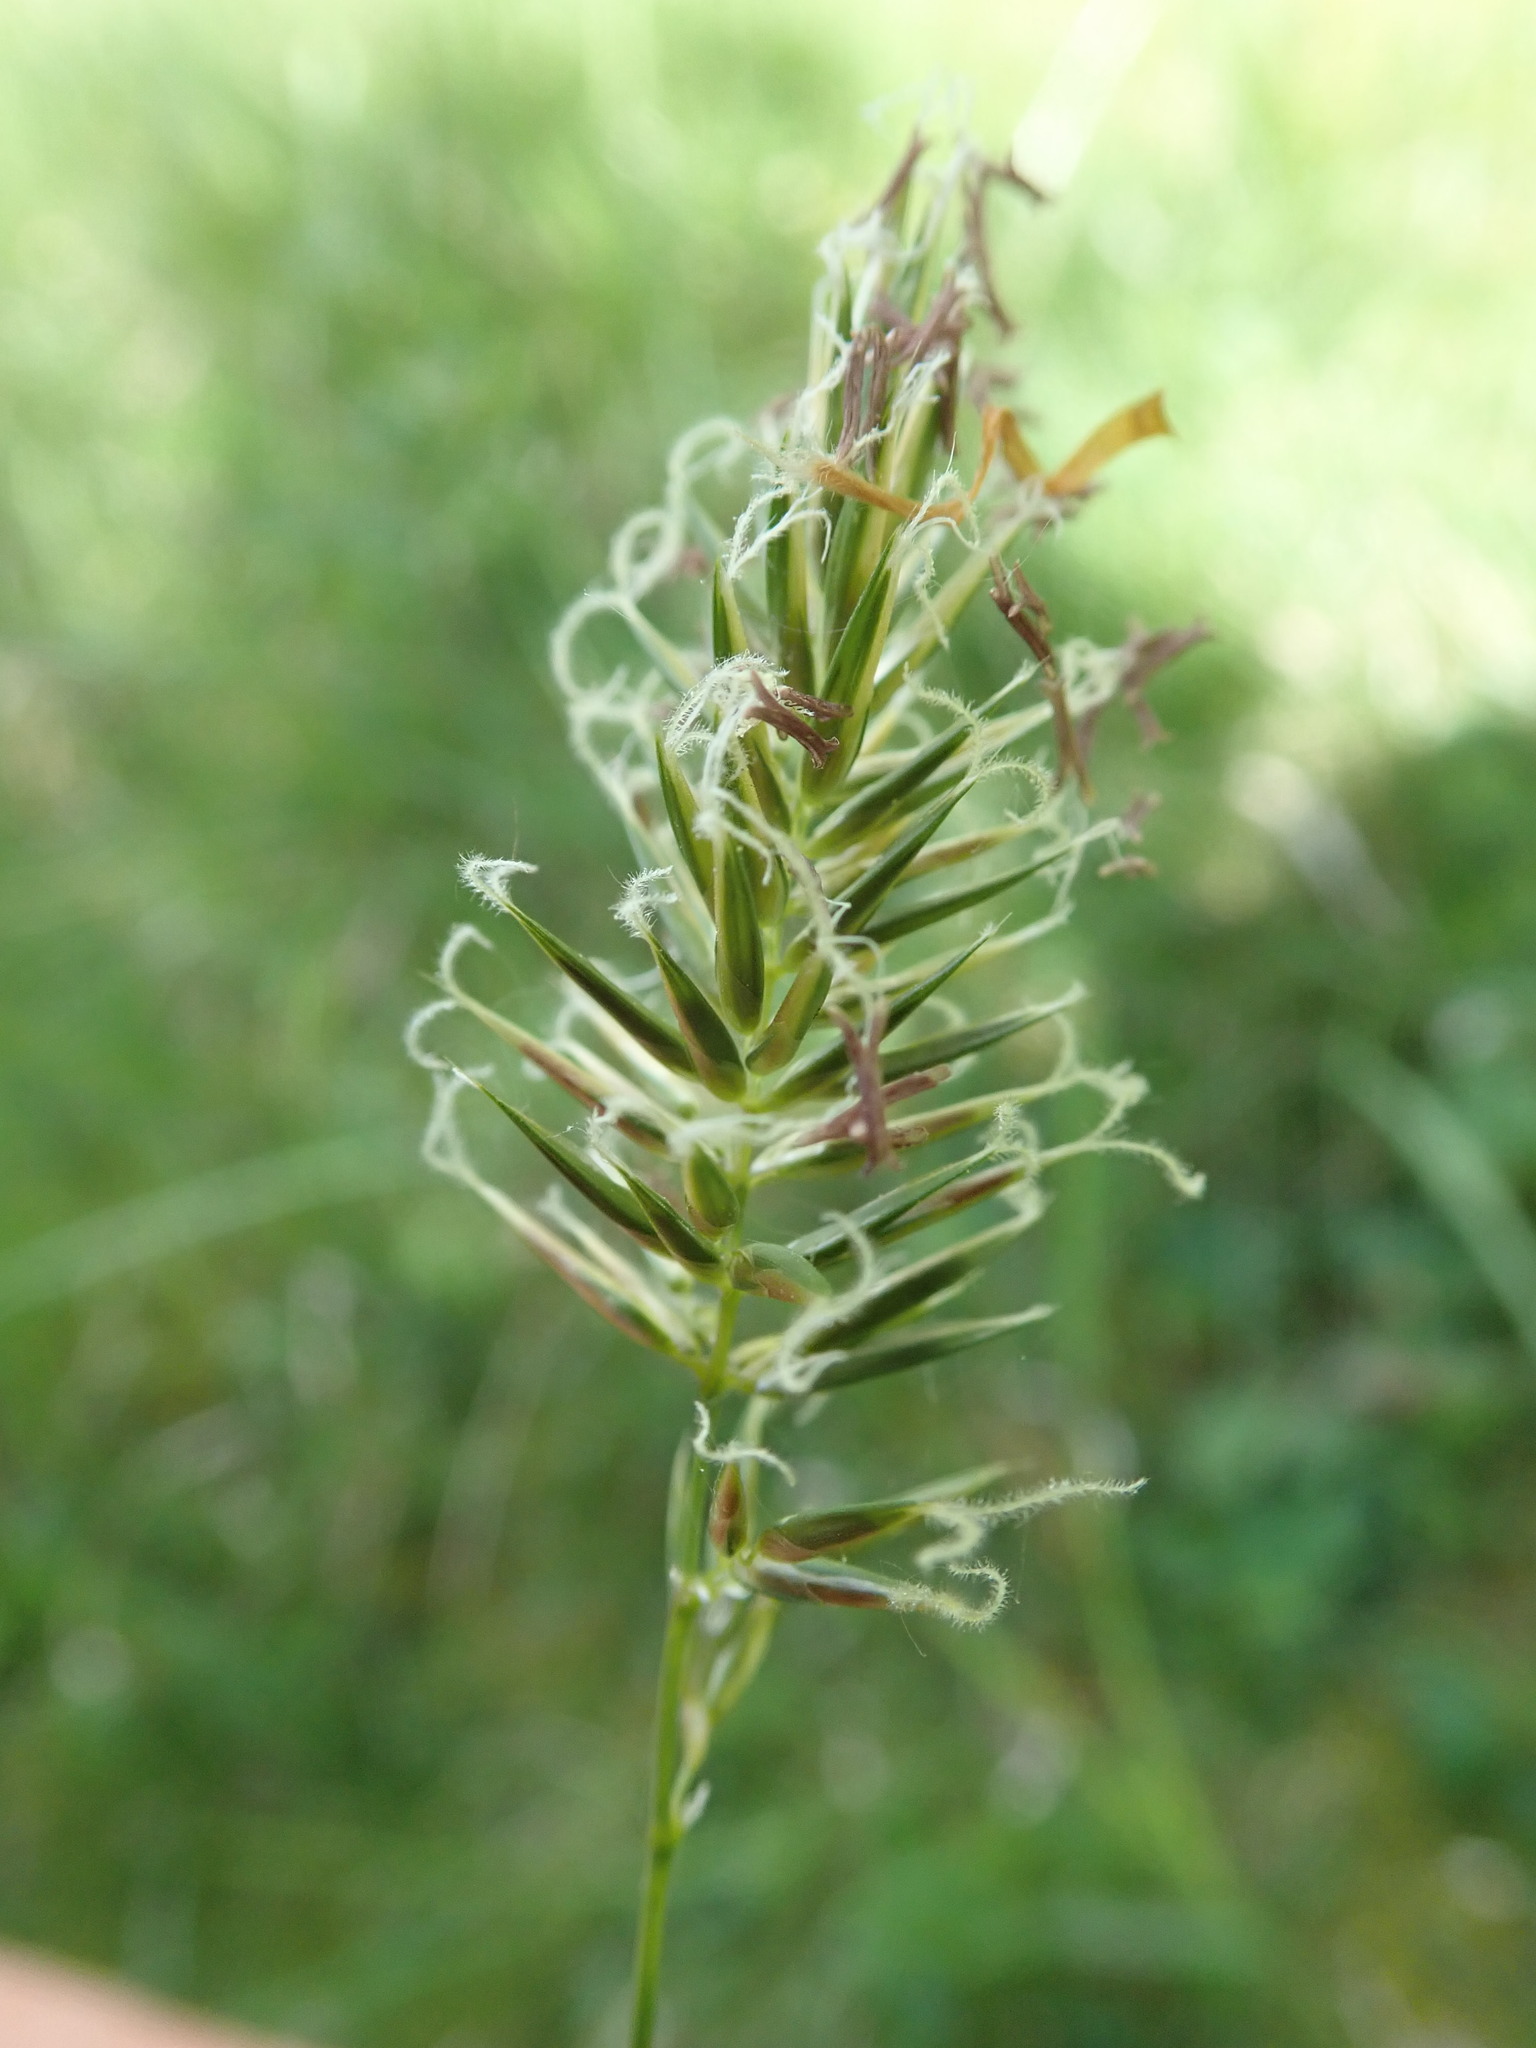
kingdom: Plantae
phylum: Tracheophyta
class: Liliopsida
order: Poales
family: Poaceae
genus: Anthoxanthum
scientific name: Anthoxanthum odoratum
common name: Sweet vernalgrass
